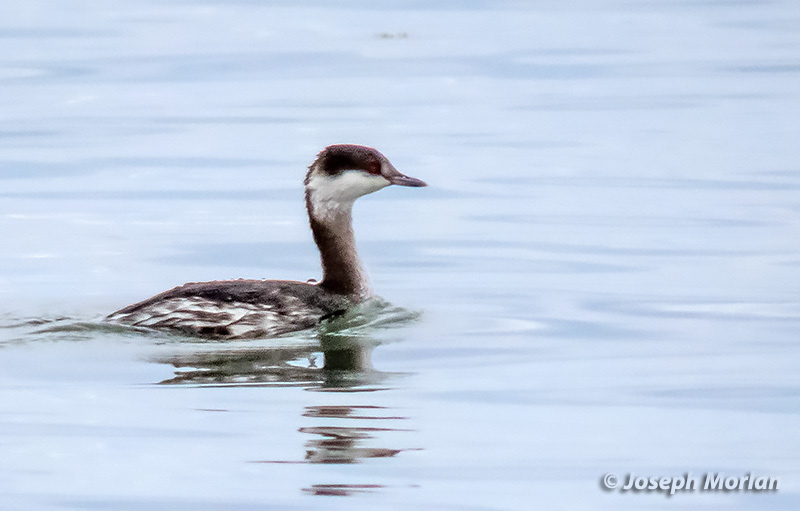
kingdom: Animalia
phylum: Chordata
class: Aves
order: Podicipediformes
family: Podicipedidae
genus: Podiceps
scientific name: Podiceps auritus
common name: Horned grebe
